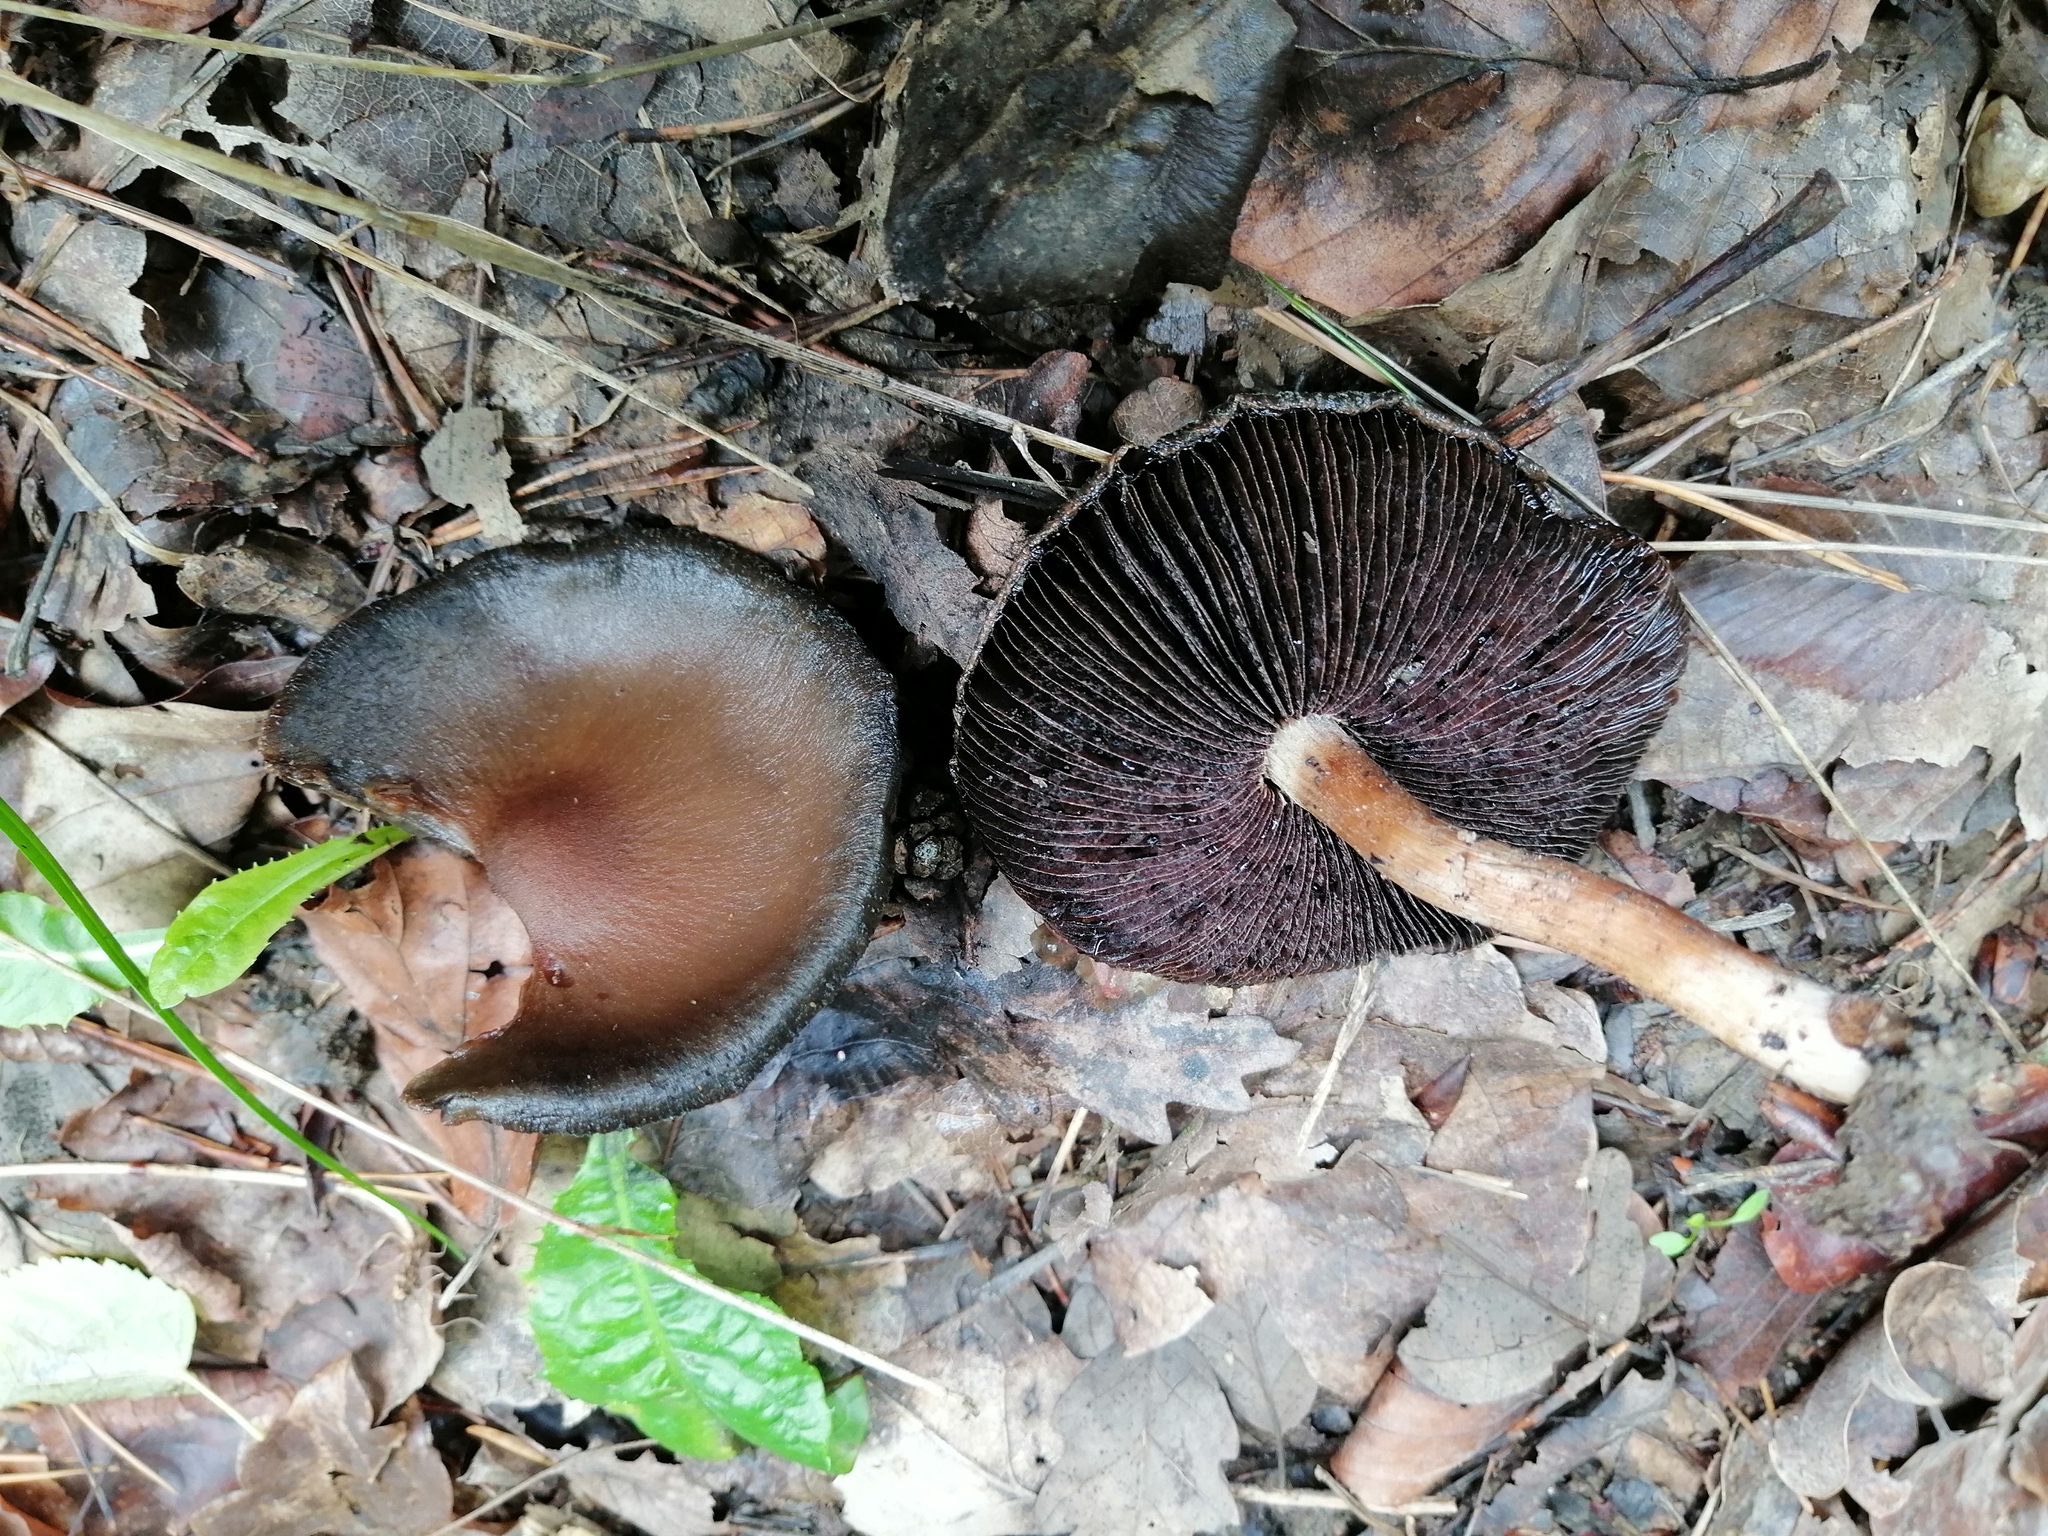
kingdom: Fungi
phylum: Basidiomycota
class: Agaricomycetes
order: Agaricales
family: Psathyrellaceae
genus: Lacrymaria
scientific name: Lacrymaria lacrymabunda
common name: Weeping widow
